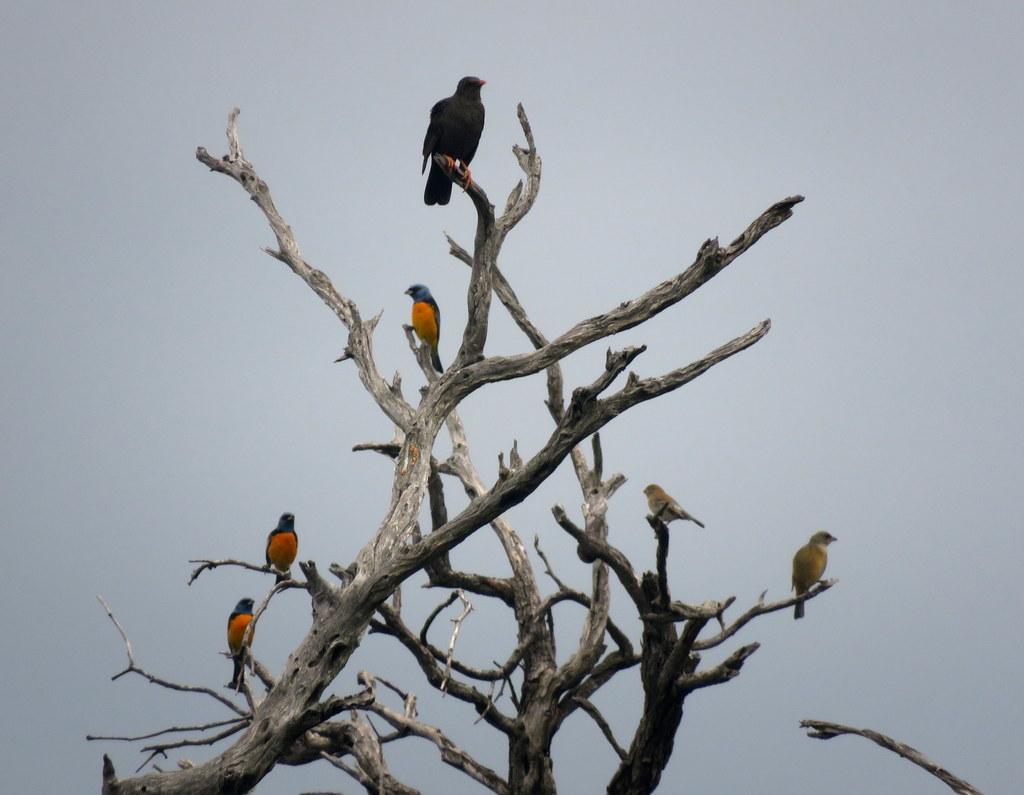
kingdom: Animalia
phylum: Chordata
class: Aves
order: Passeriformes
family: Thraupidae
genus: Rauenia
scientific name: Rauenia bonariensis
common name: Blue-and-yellow tanager
